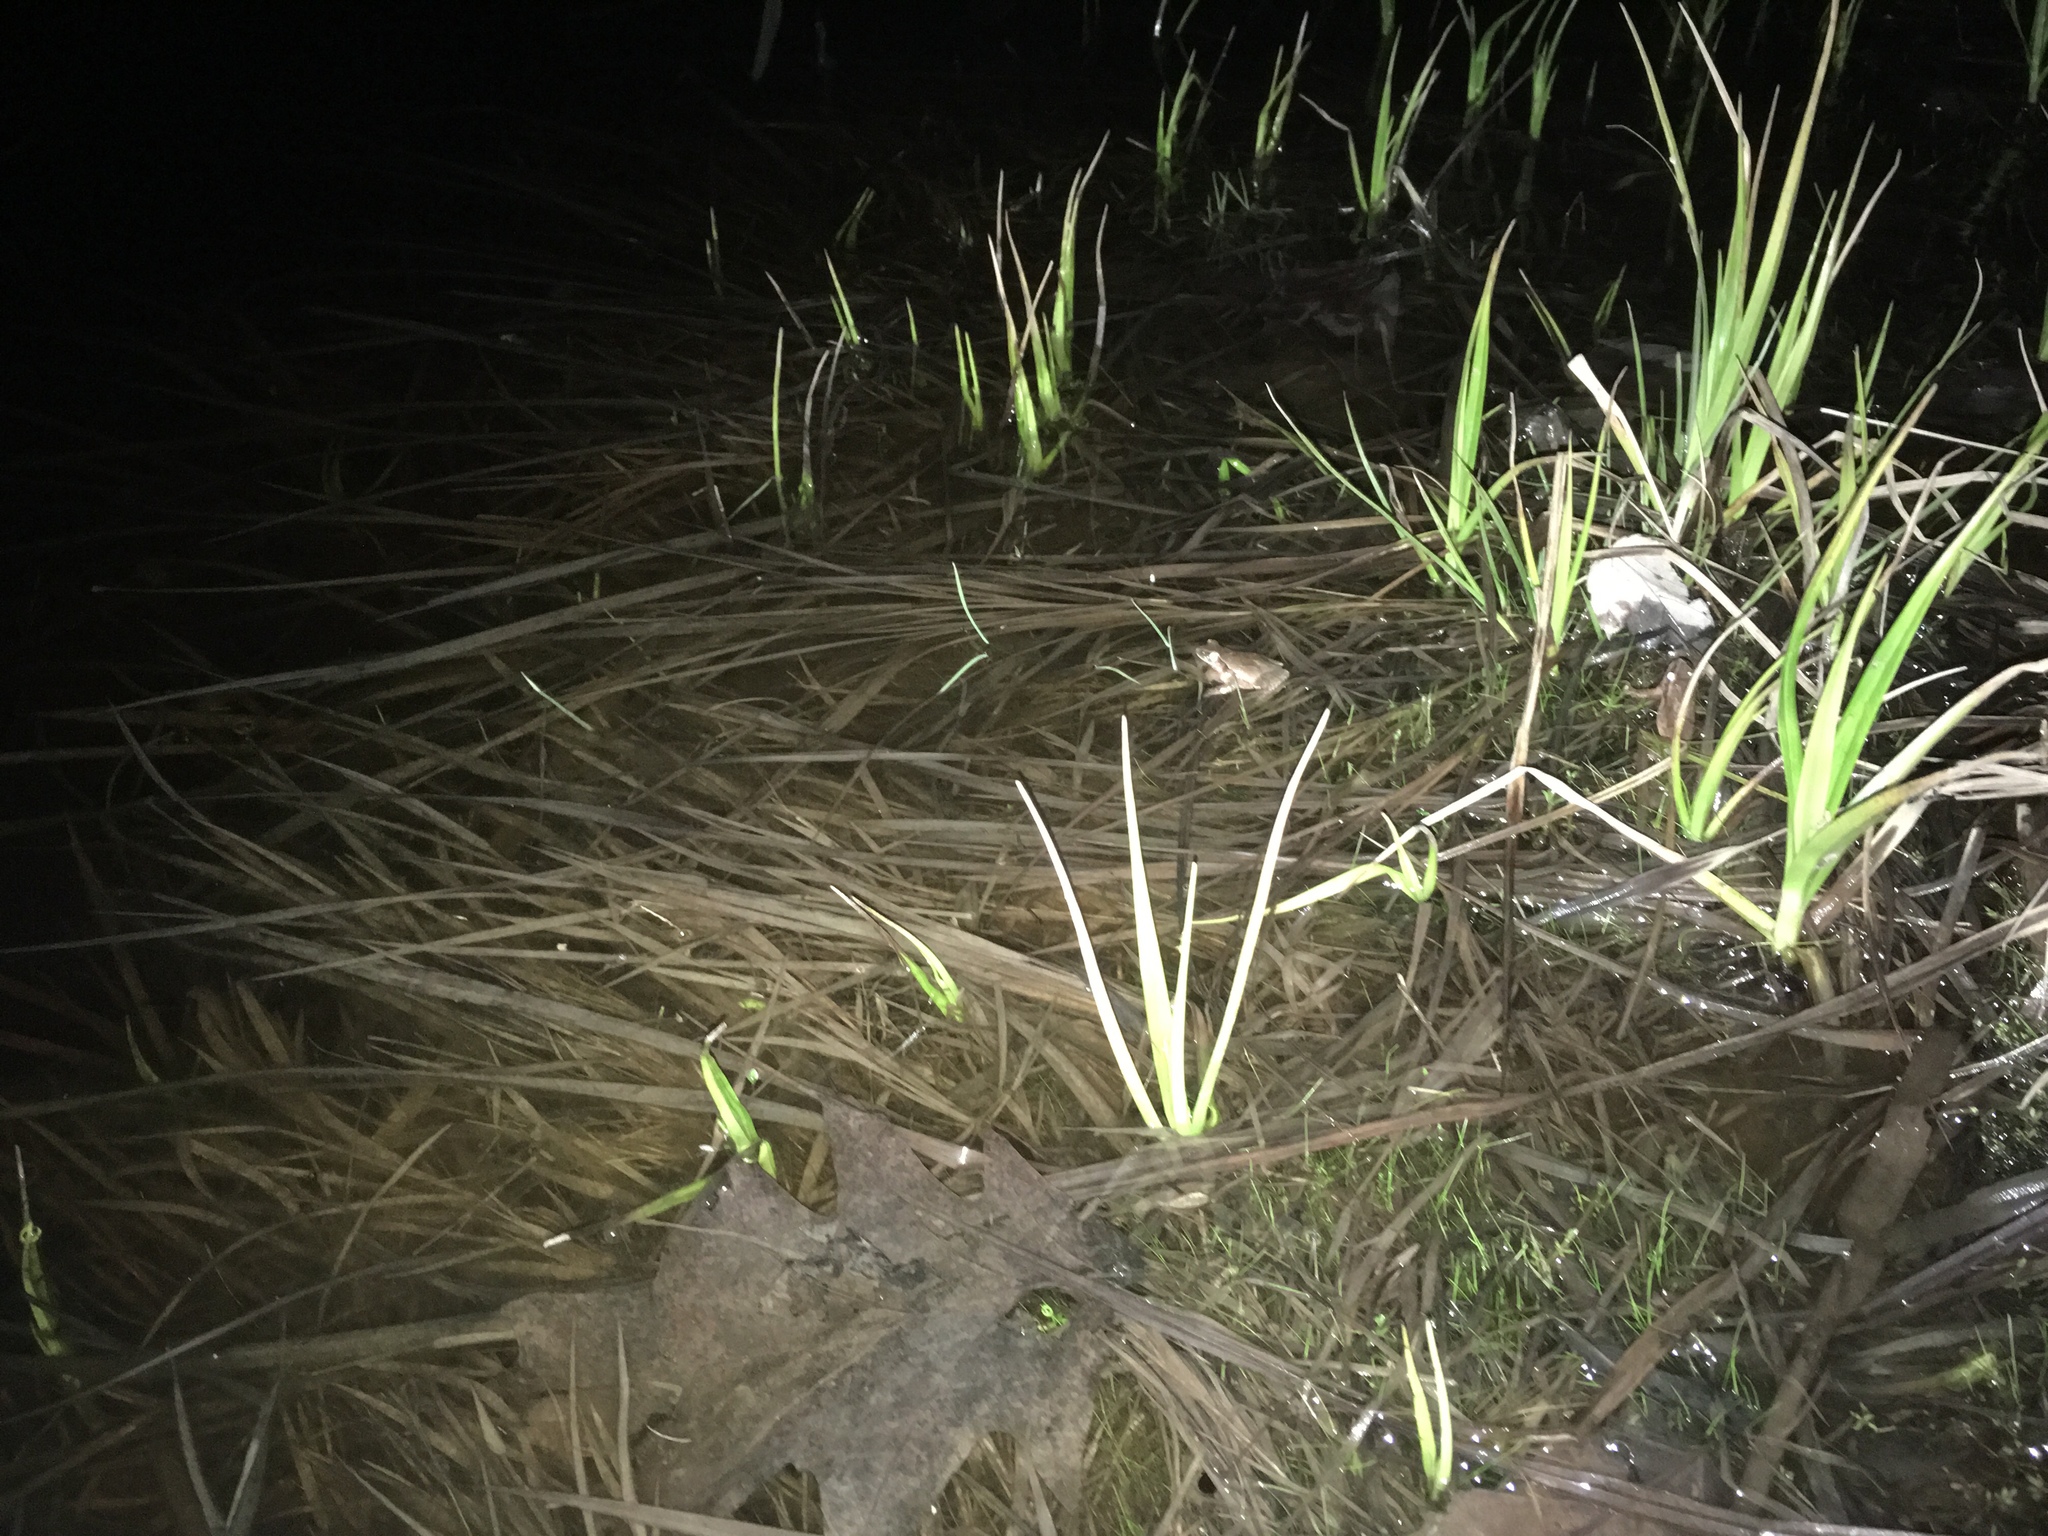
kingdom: Animalia
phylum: Chordata
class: Amphibia
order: Anura
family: Hylidae
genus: Pseudacris
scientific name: Pseudacris crucifer
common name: Spring peeper
